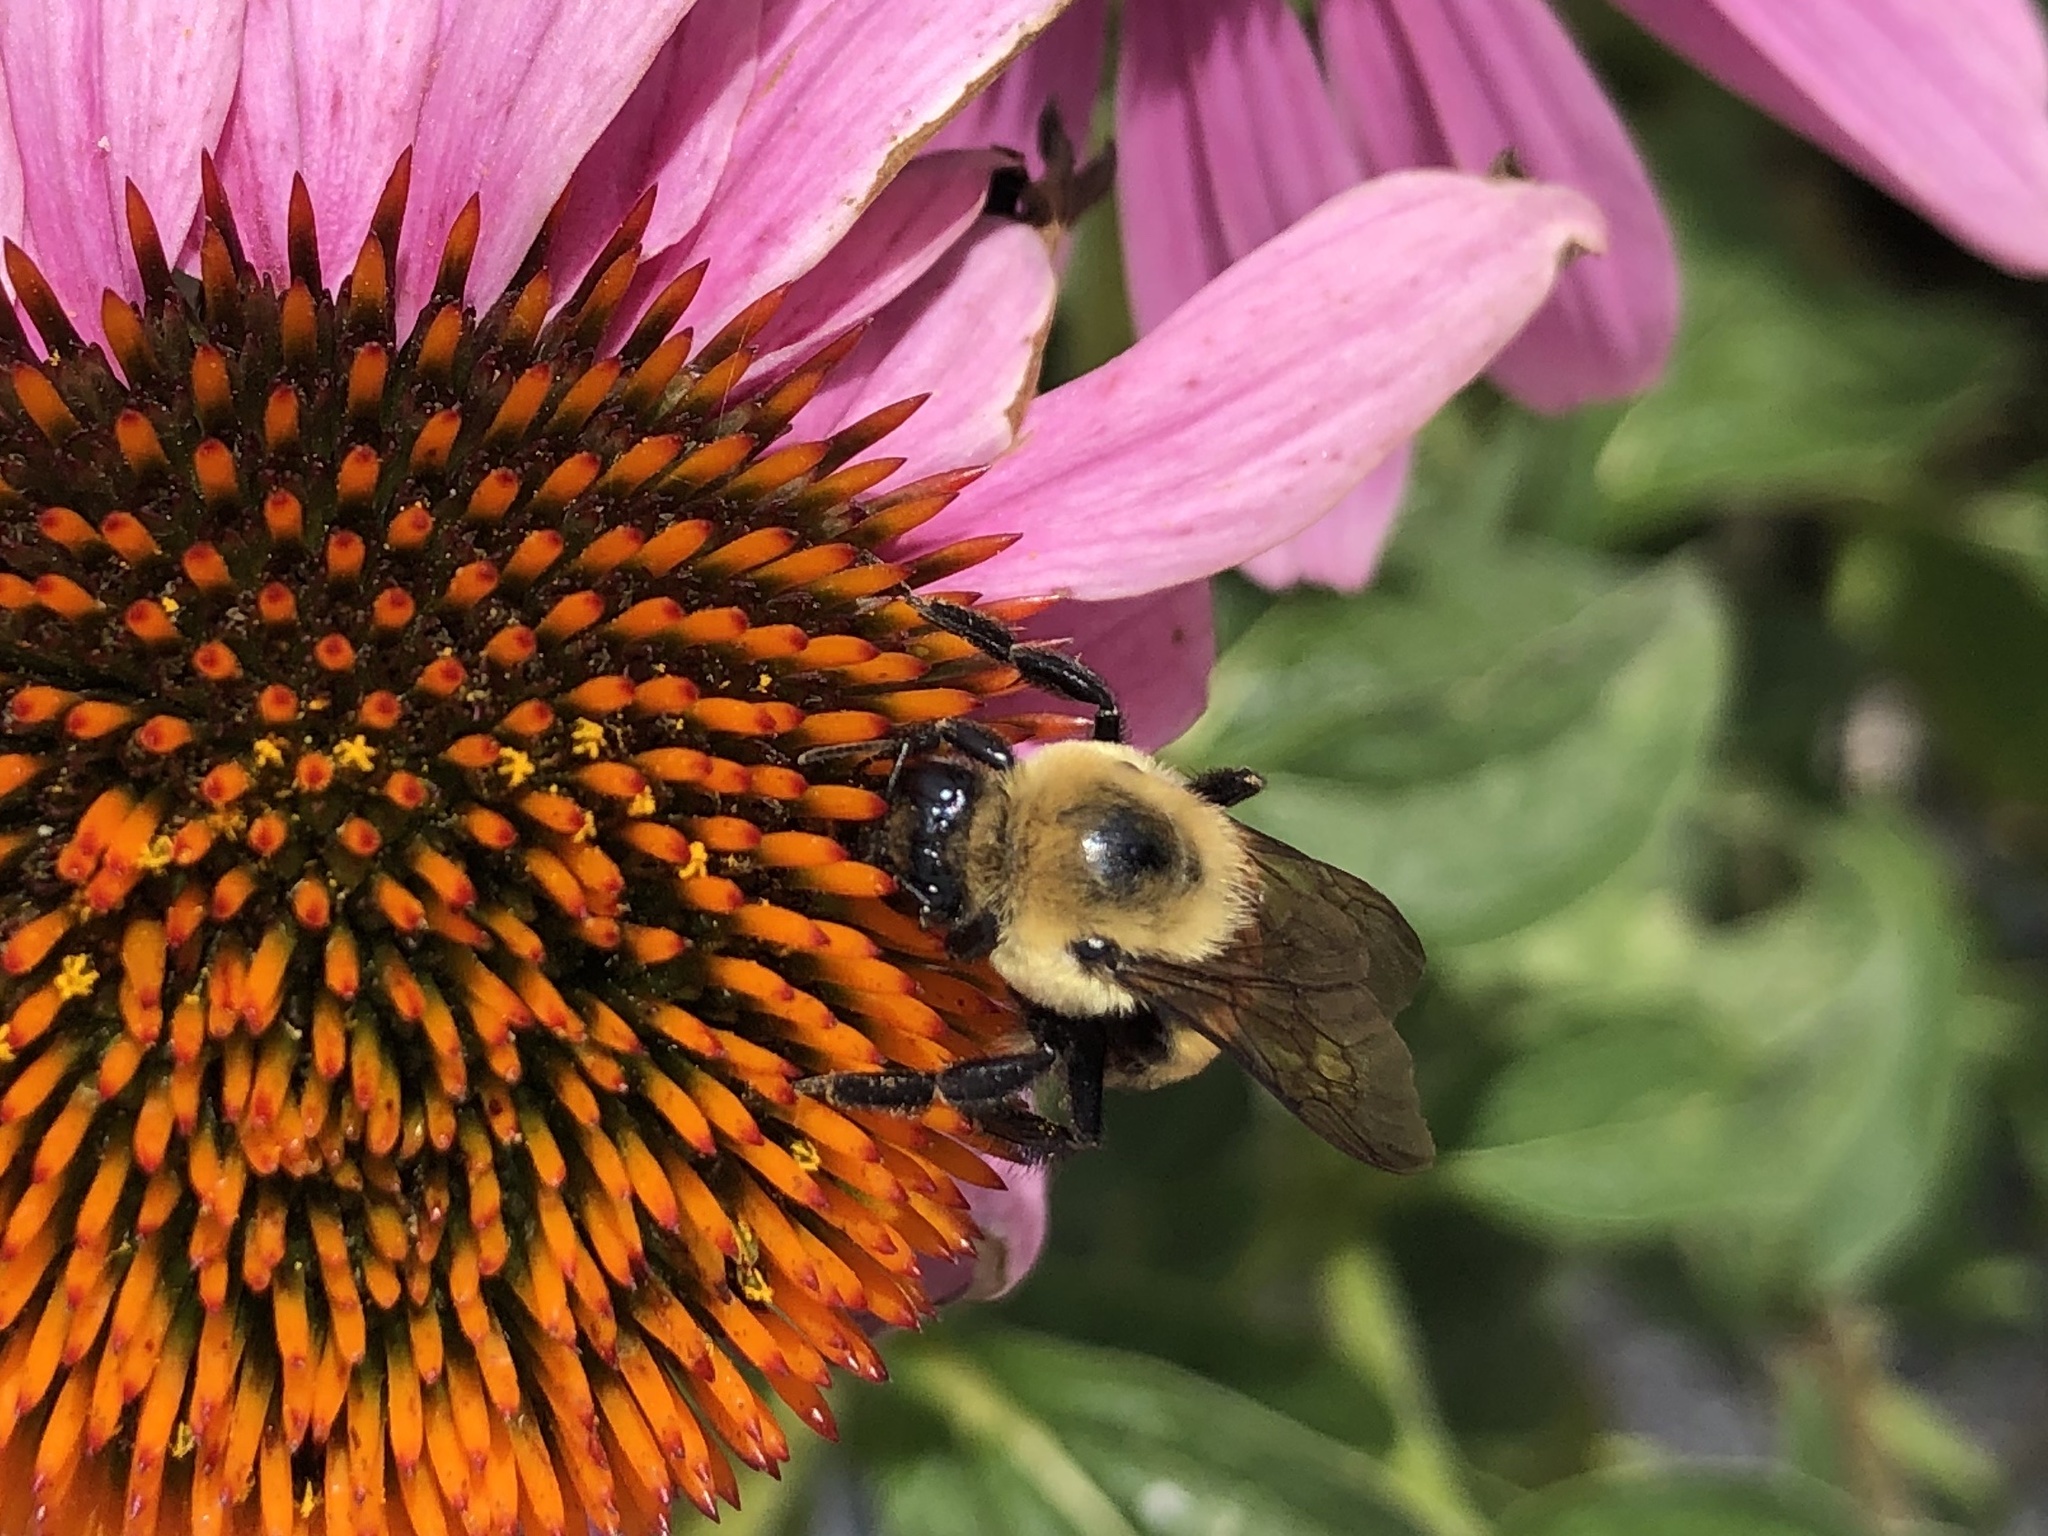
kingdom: Animalia
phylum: Arthropoda
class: Insecta
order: Hymenoptera
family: Apidae
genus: Bombus
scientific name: Bombus griseocollis
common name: Brown-belted bumble bee
